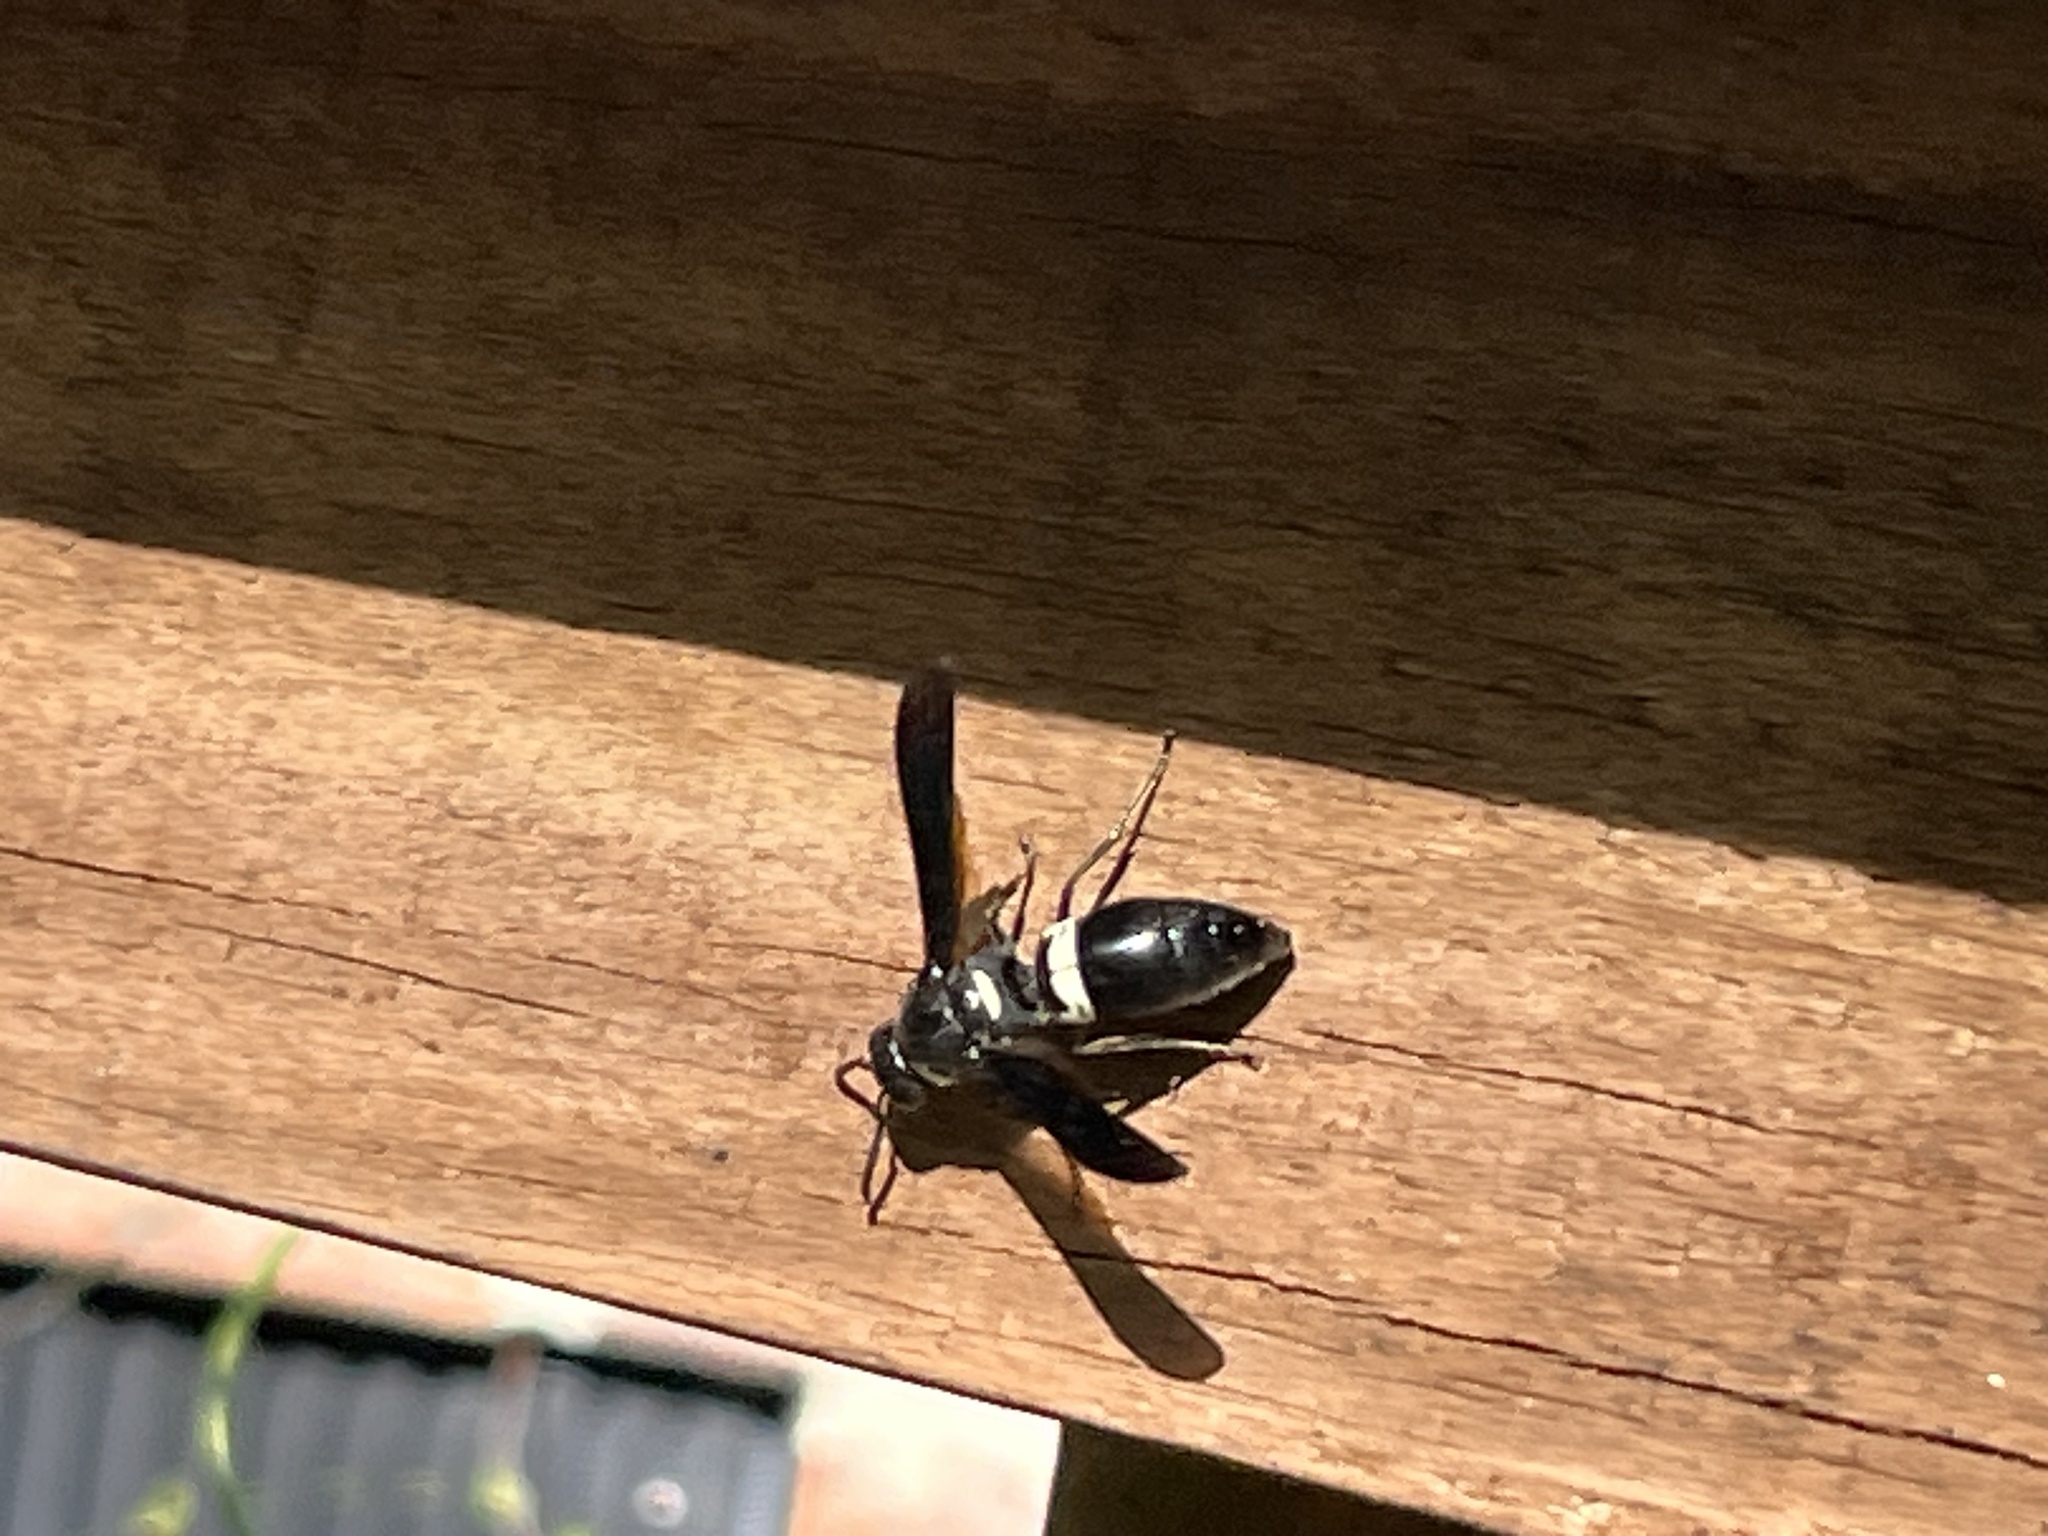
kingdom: Animalia
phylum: Arthropoda
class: Insecta
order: Hymenoptera
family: Eumenidae
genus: Monobia
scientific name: Monobia quadridens
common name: Four-toothed mason wasp
